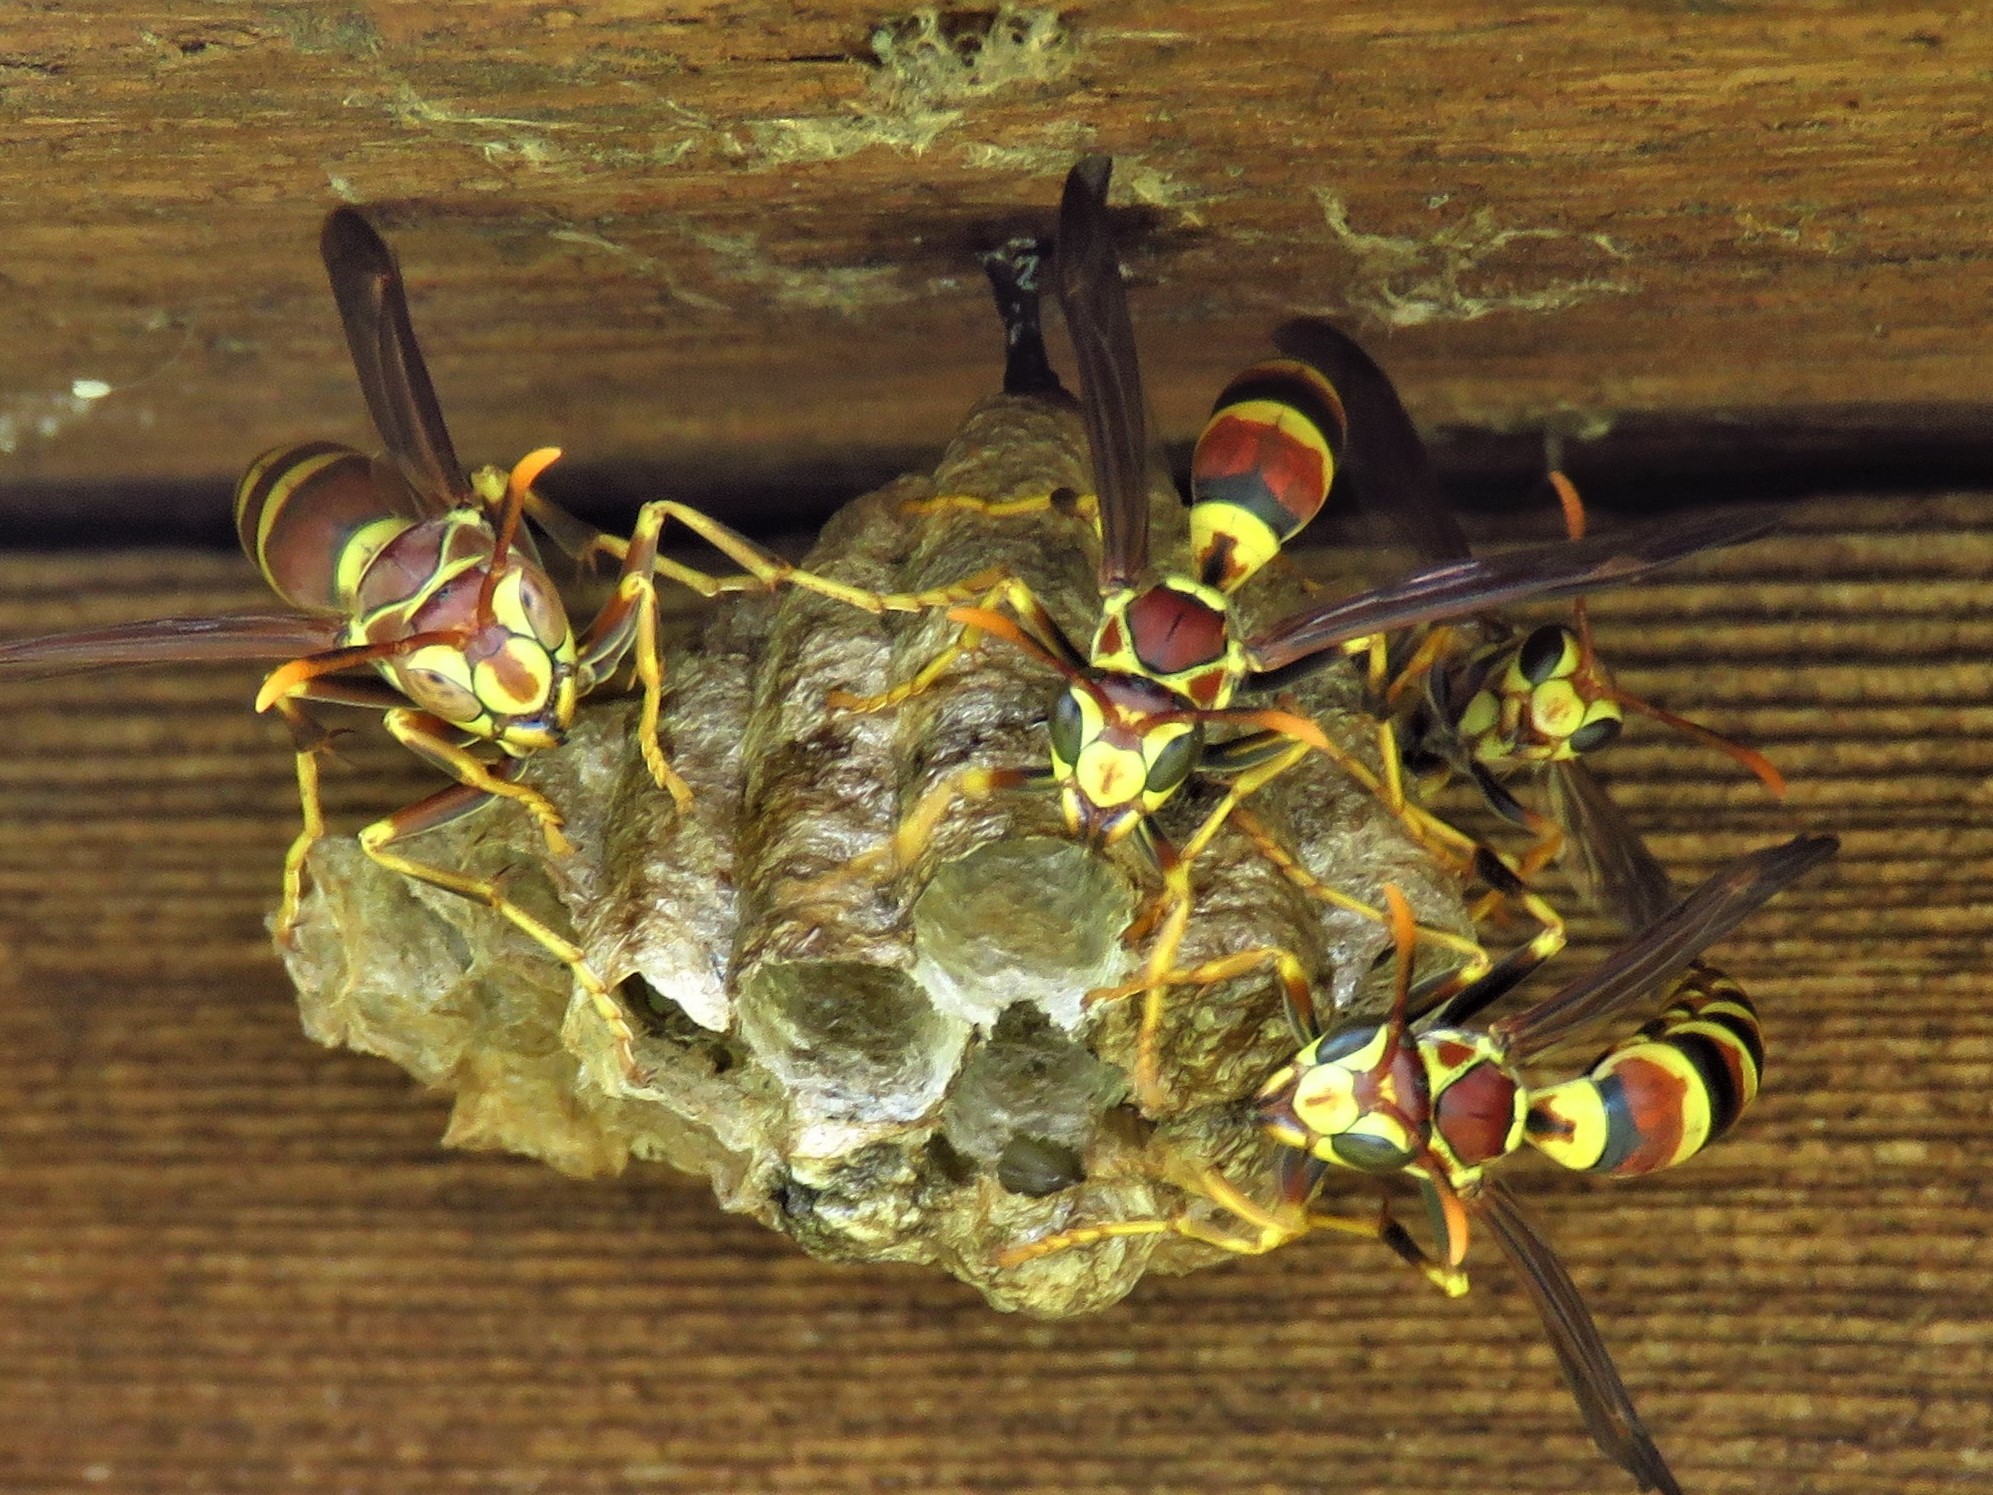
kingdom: Animalia
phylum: Arthropoda
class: Insecta
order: Hymenoptera
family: Eumenidae
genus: Polistes
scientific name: Polistes exclamans
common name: Paper wasp
